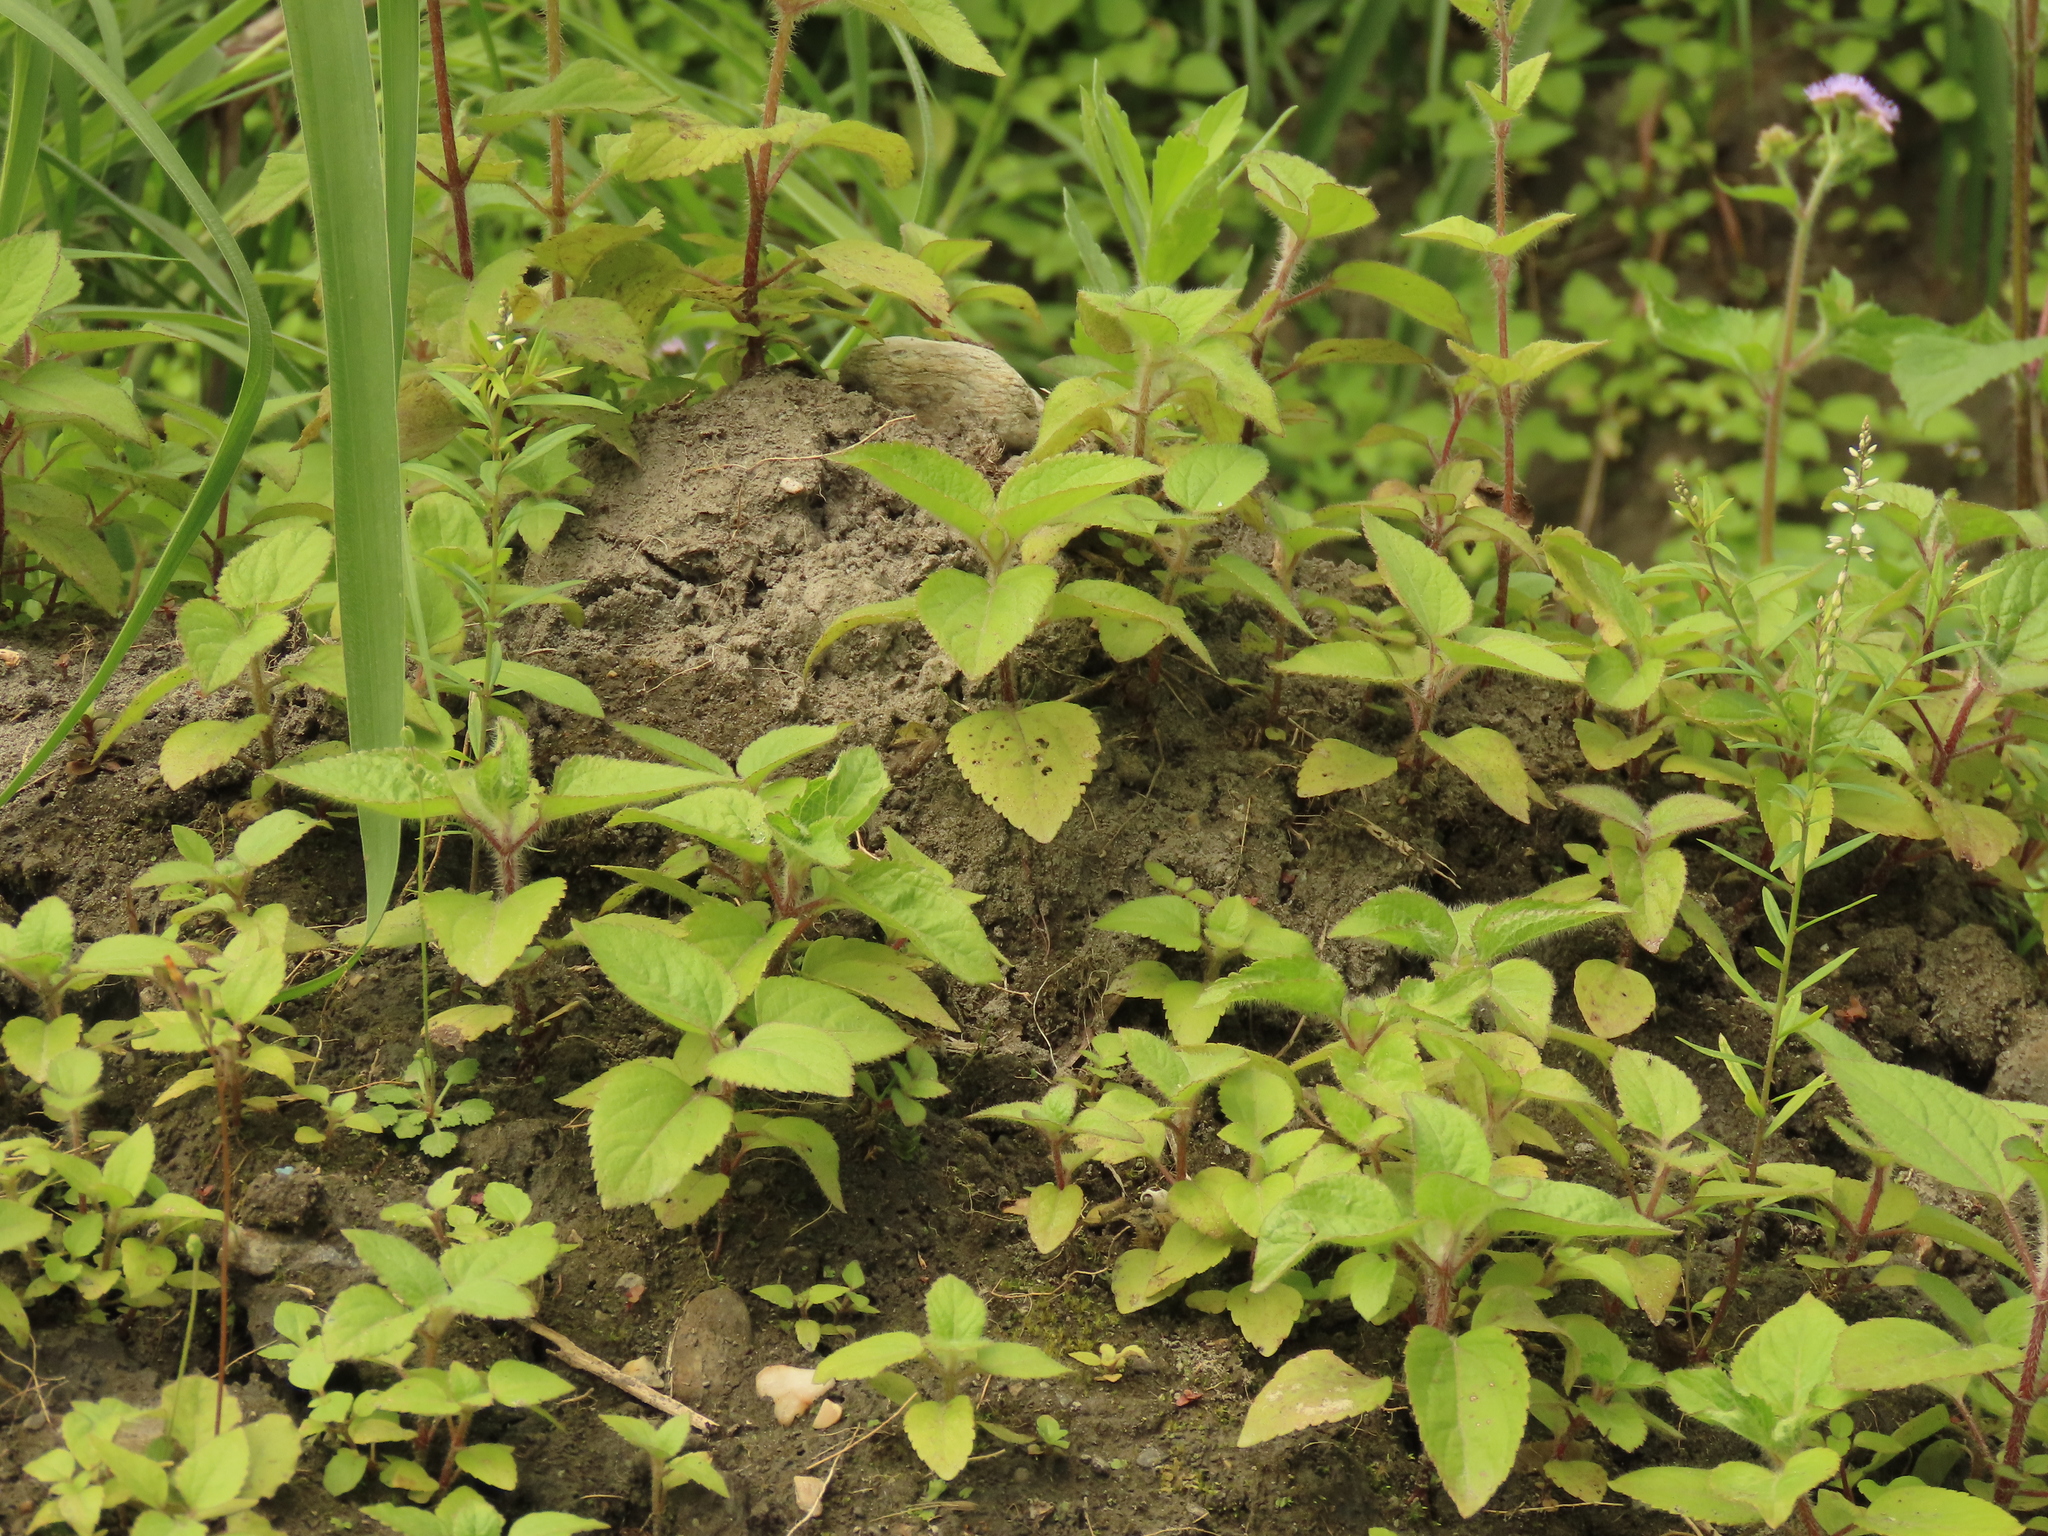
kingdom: Plantae
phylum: Tracheophyta
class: Magnoliopsida
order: Fabales
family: Polygalaceae
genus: Polygala
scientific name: Polygala paniculata
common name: Orosne
